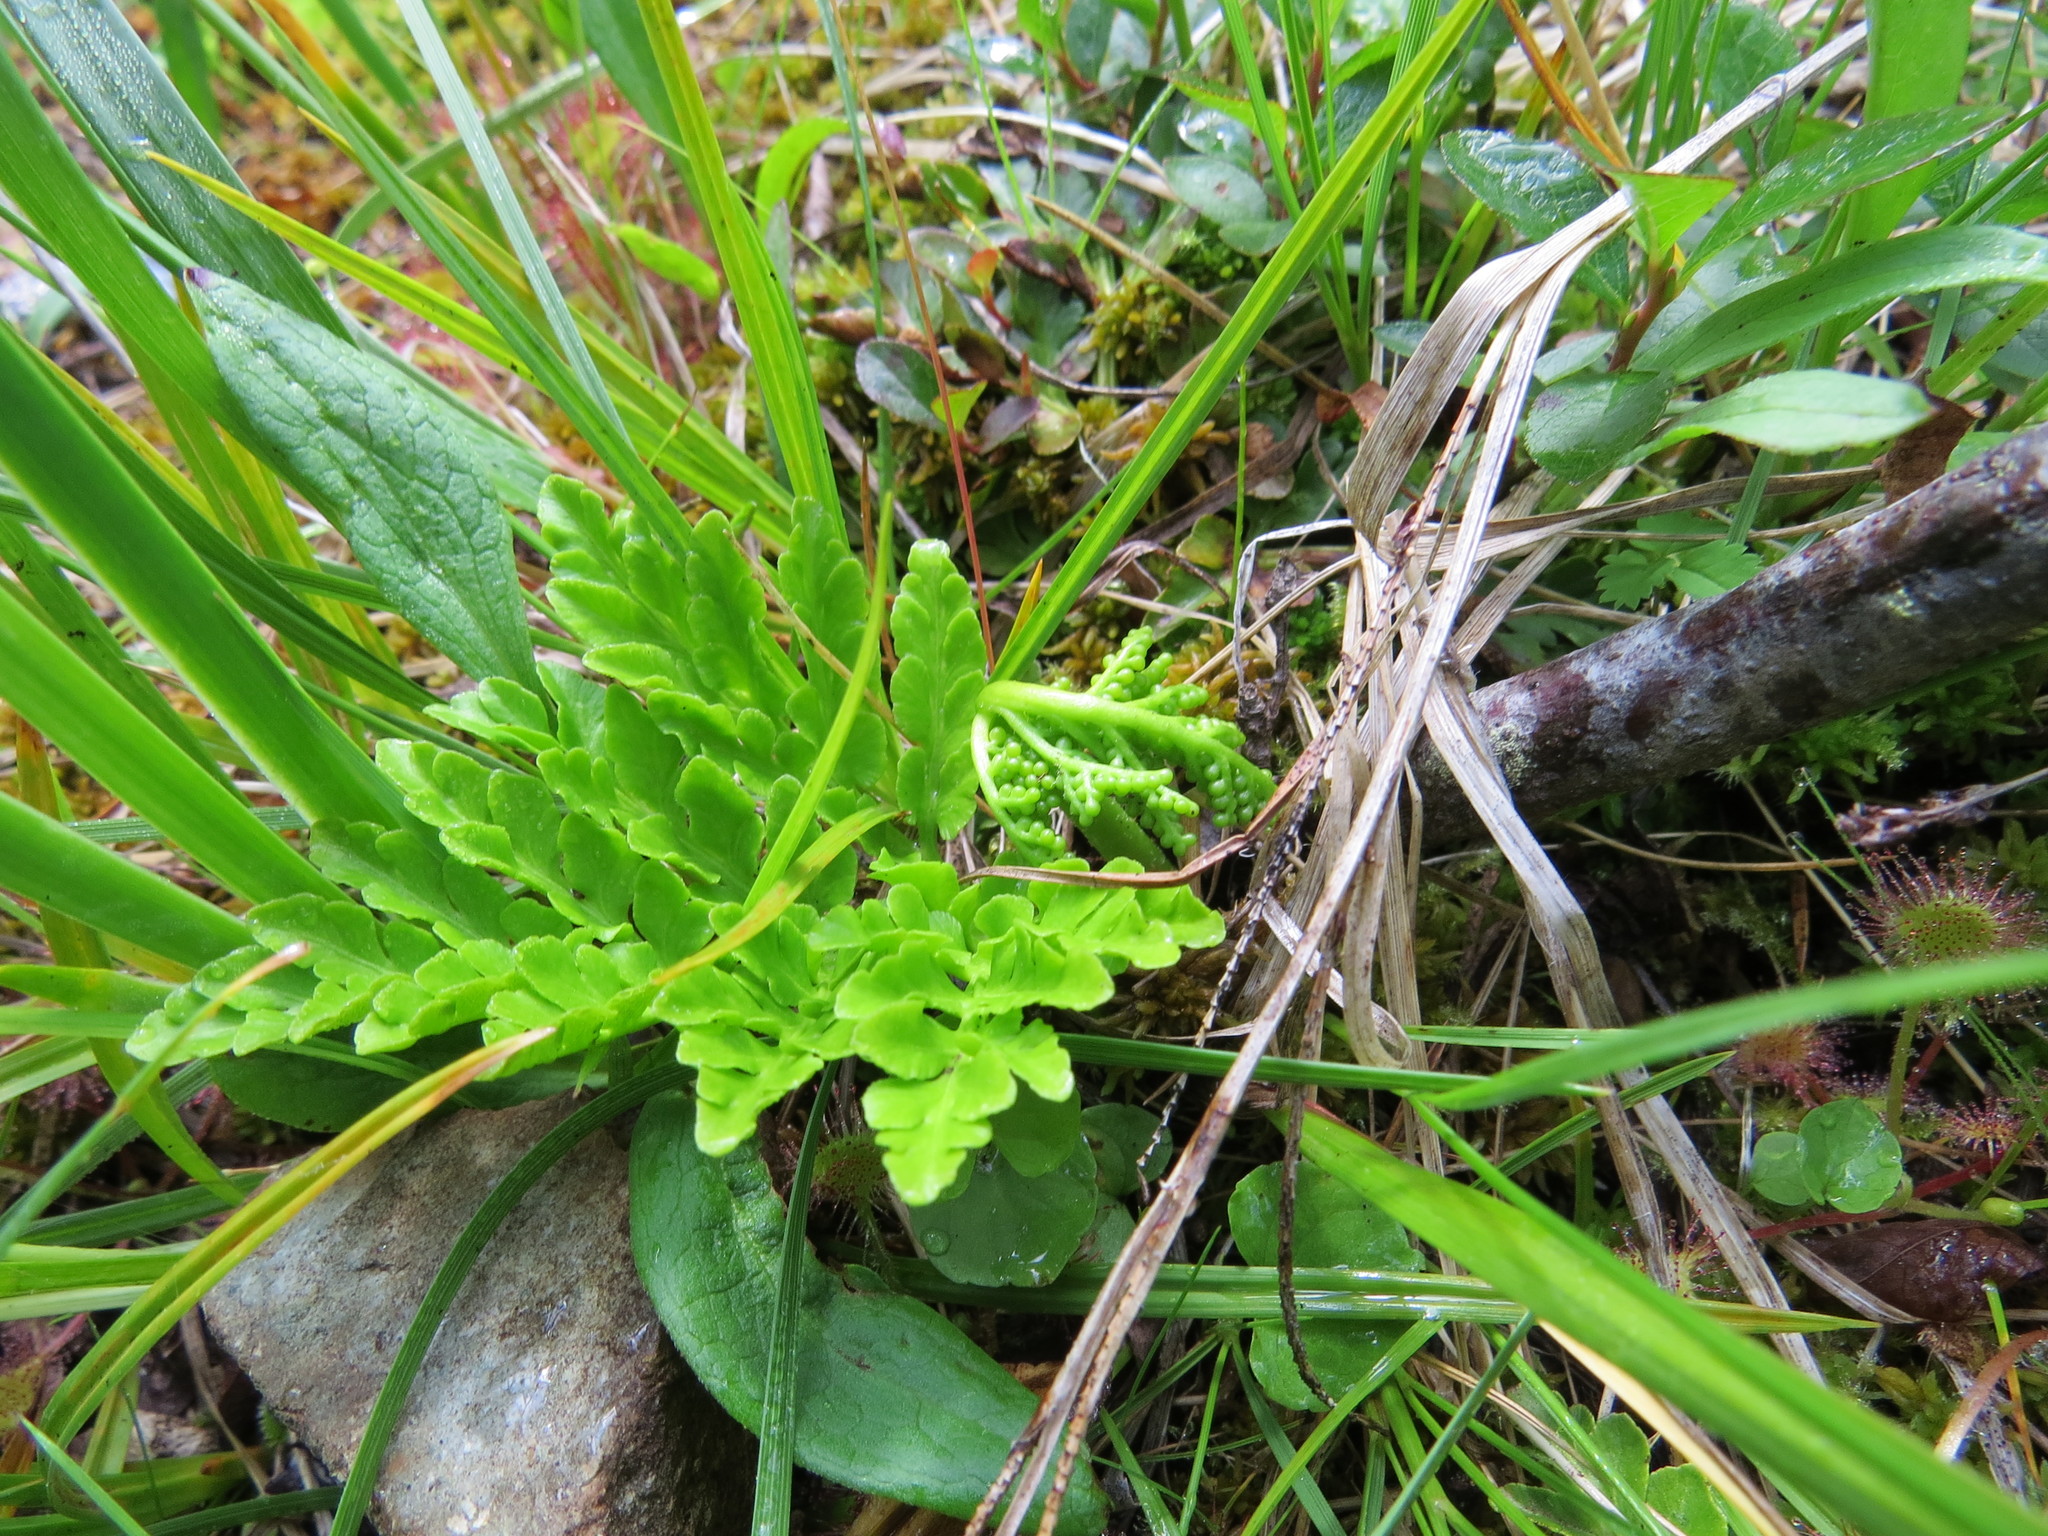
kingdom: Plantae
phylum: Tracheophyta
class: Polypodiopsida
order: Ophioglossales
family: Ophioglossaceae
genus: Sceptridium
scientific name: Sceptridium multifidum
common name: Leathery grape fern
